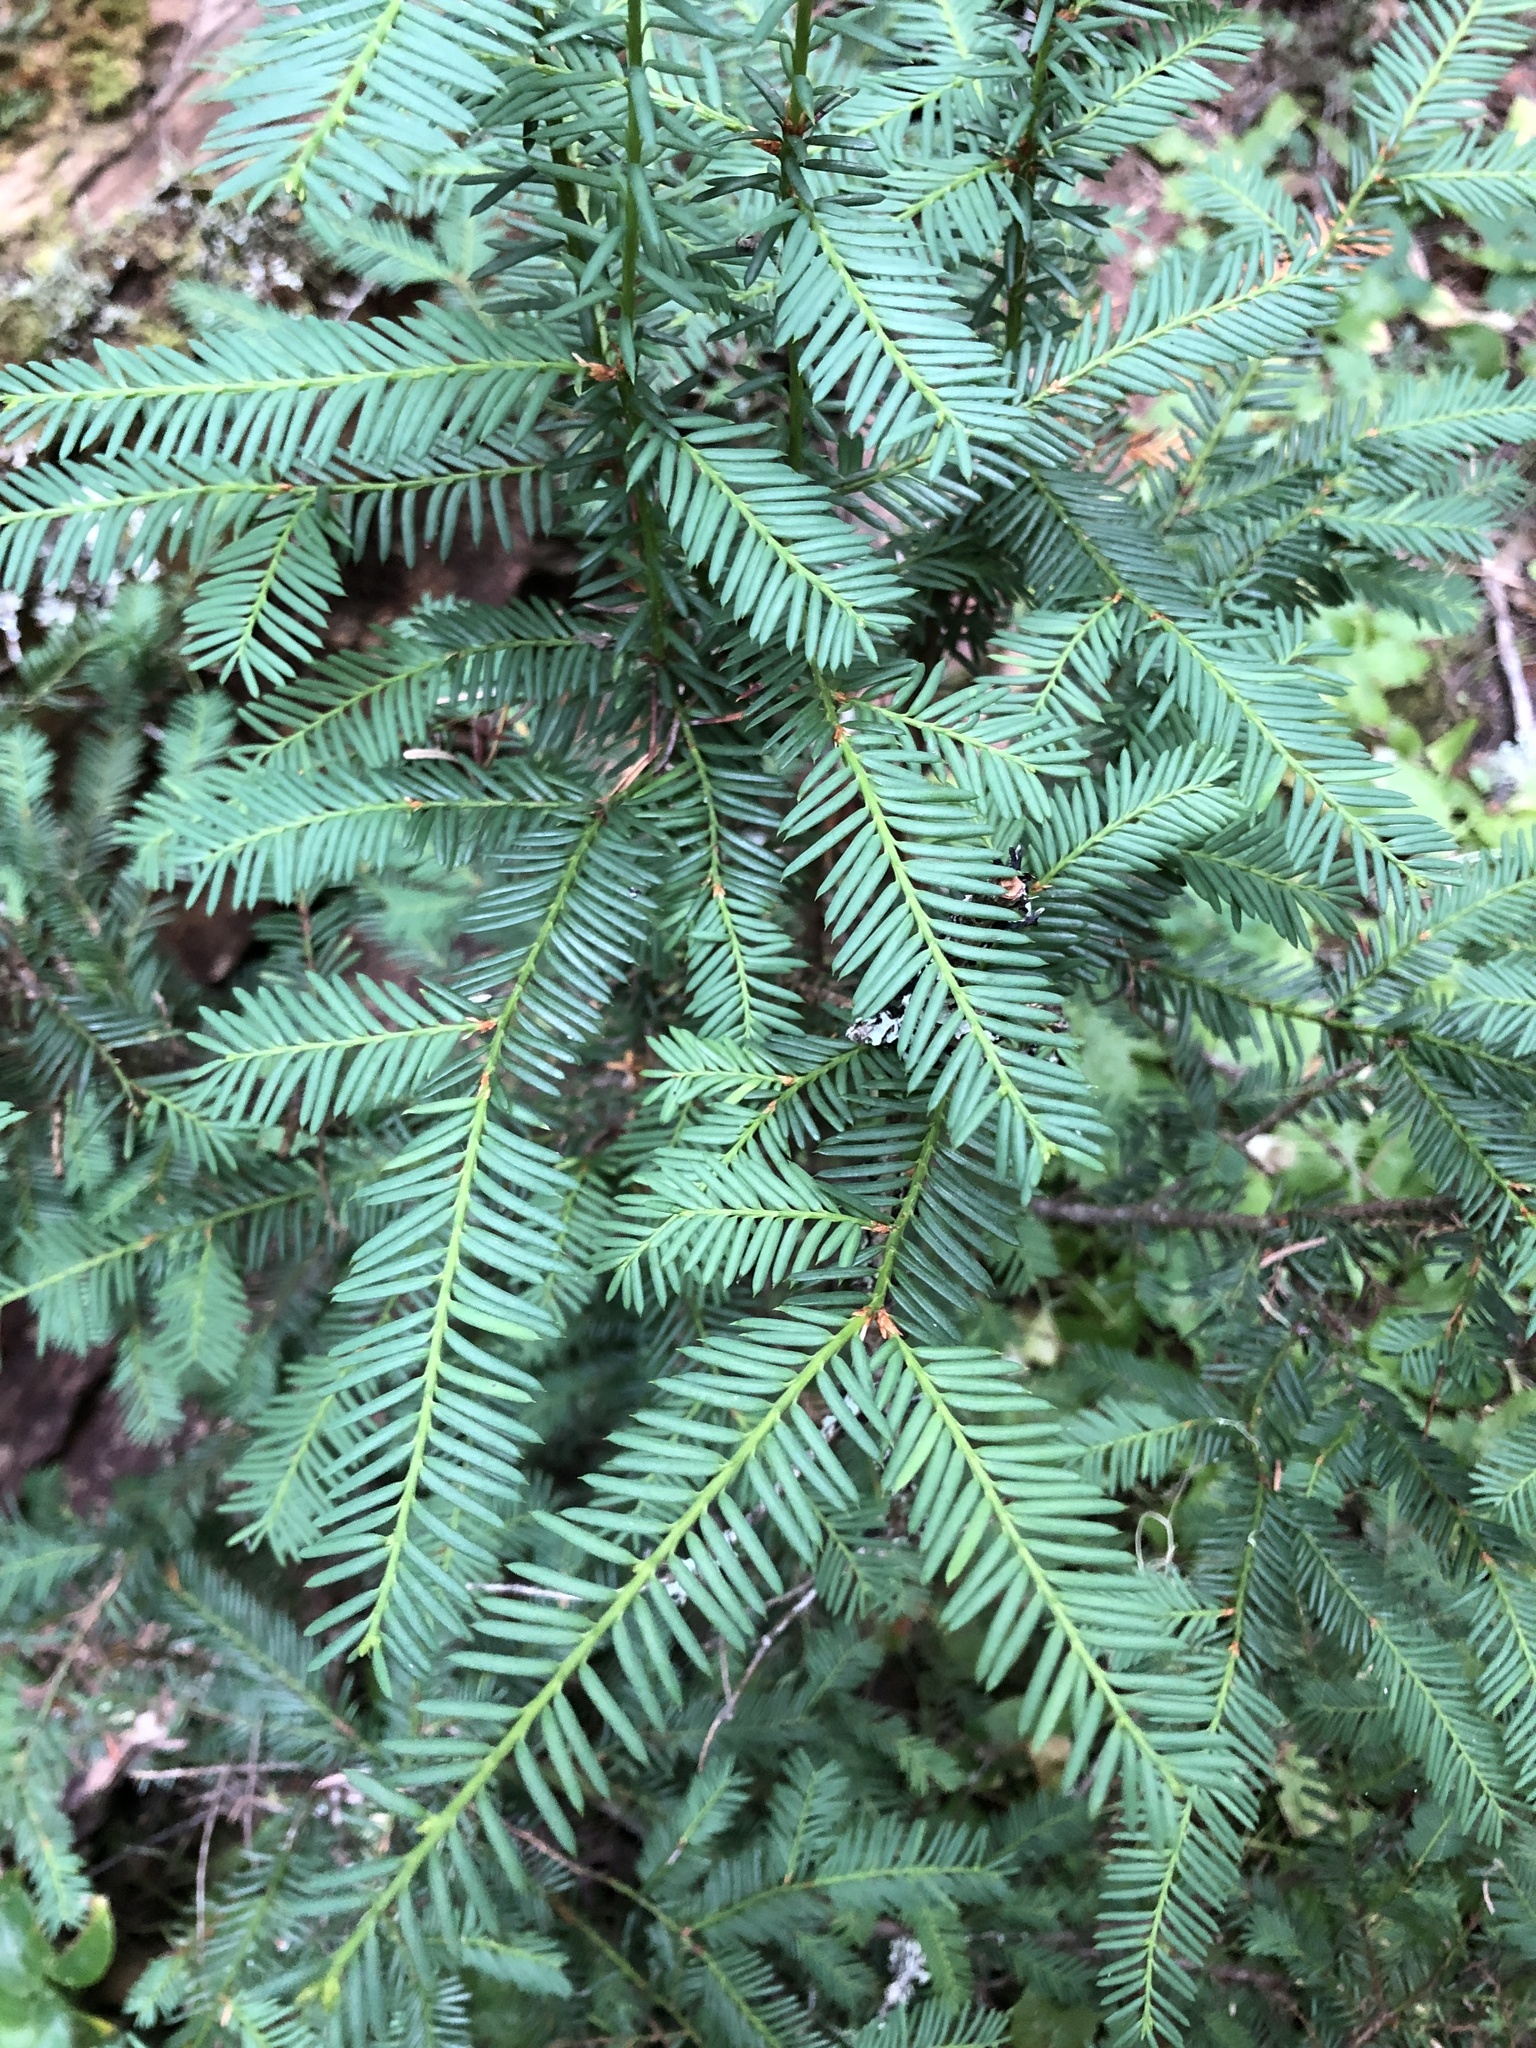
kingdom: Plantae
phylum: Tracheophyta
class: Pinopsida
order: Pinales
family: Taxaceae
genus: Taxus
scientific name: Taxus brevifolia
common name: Pacific yew
